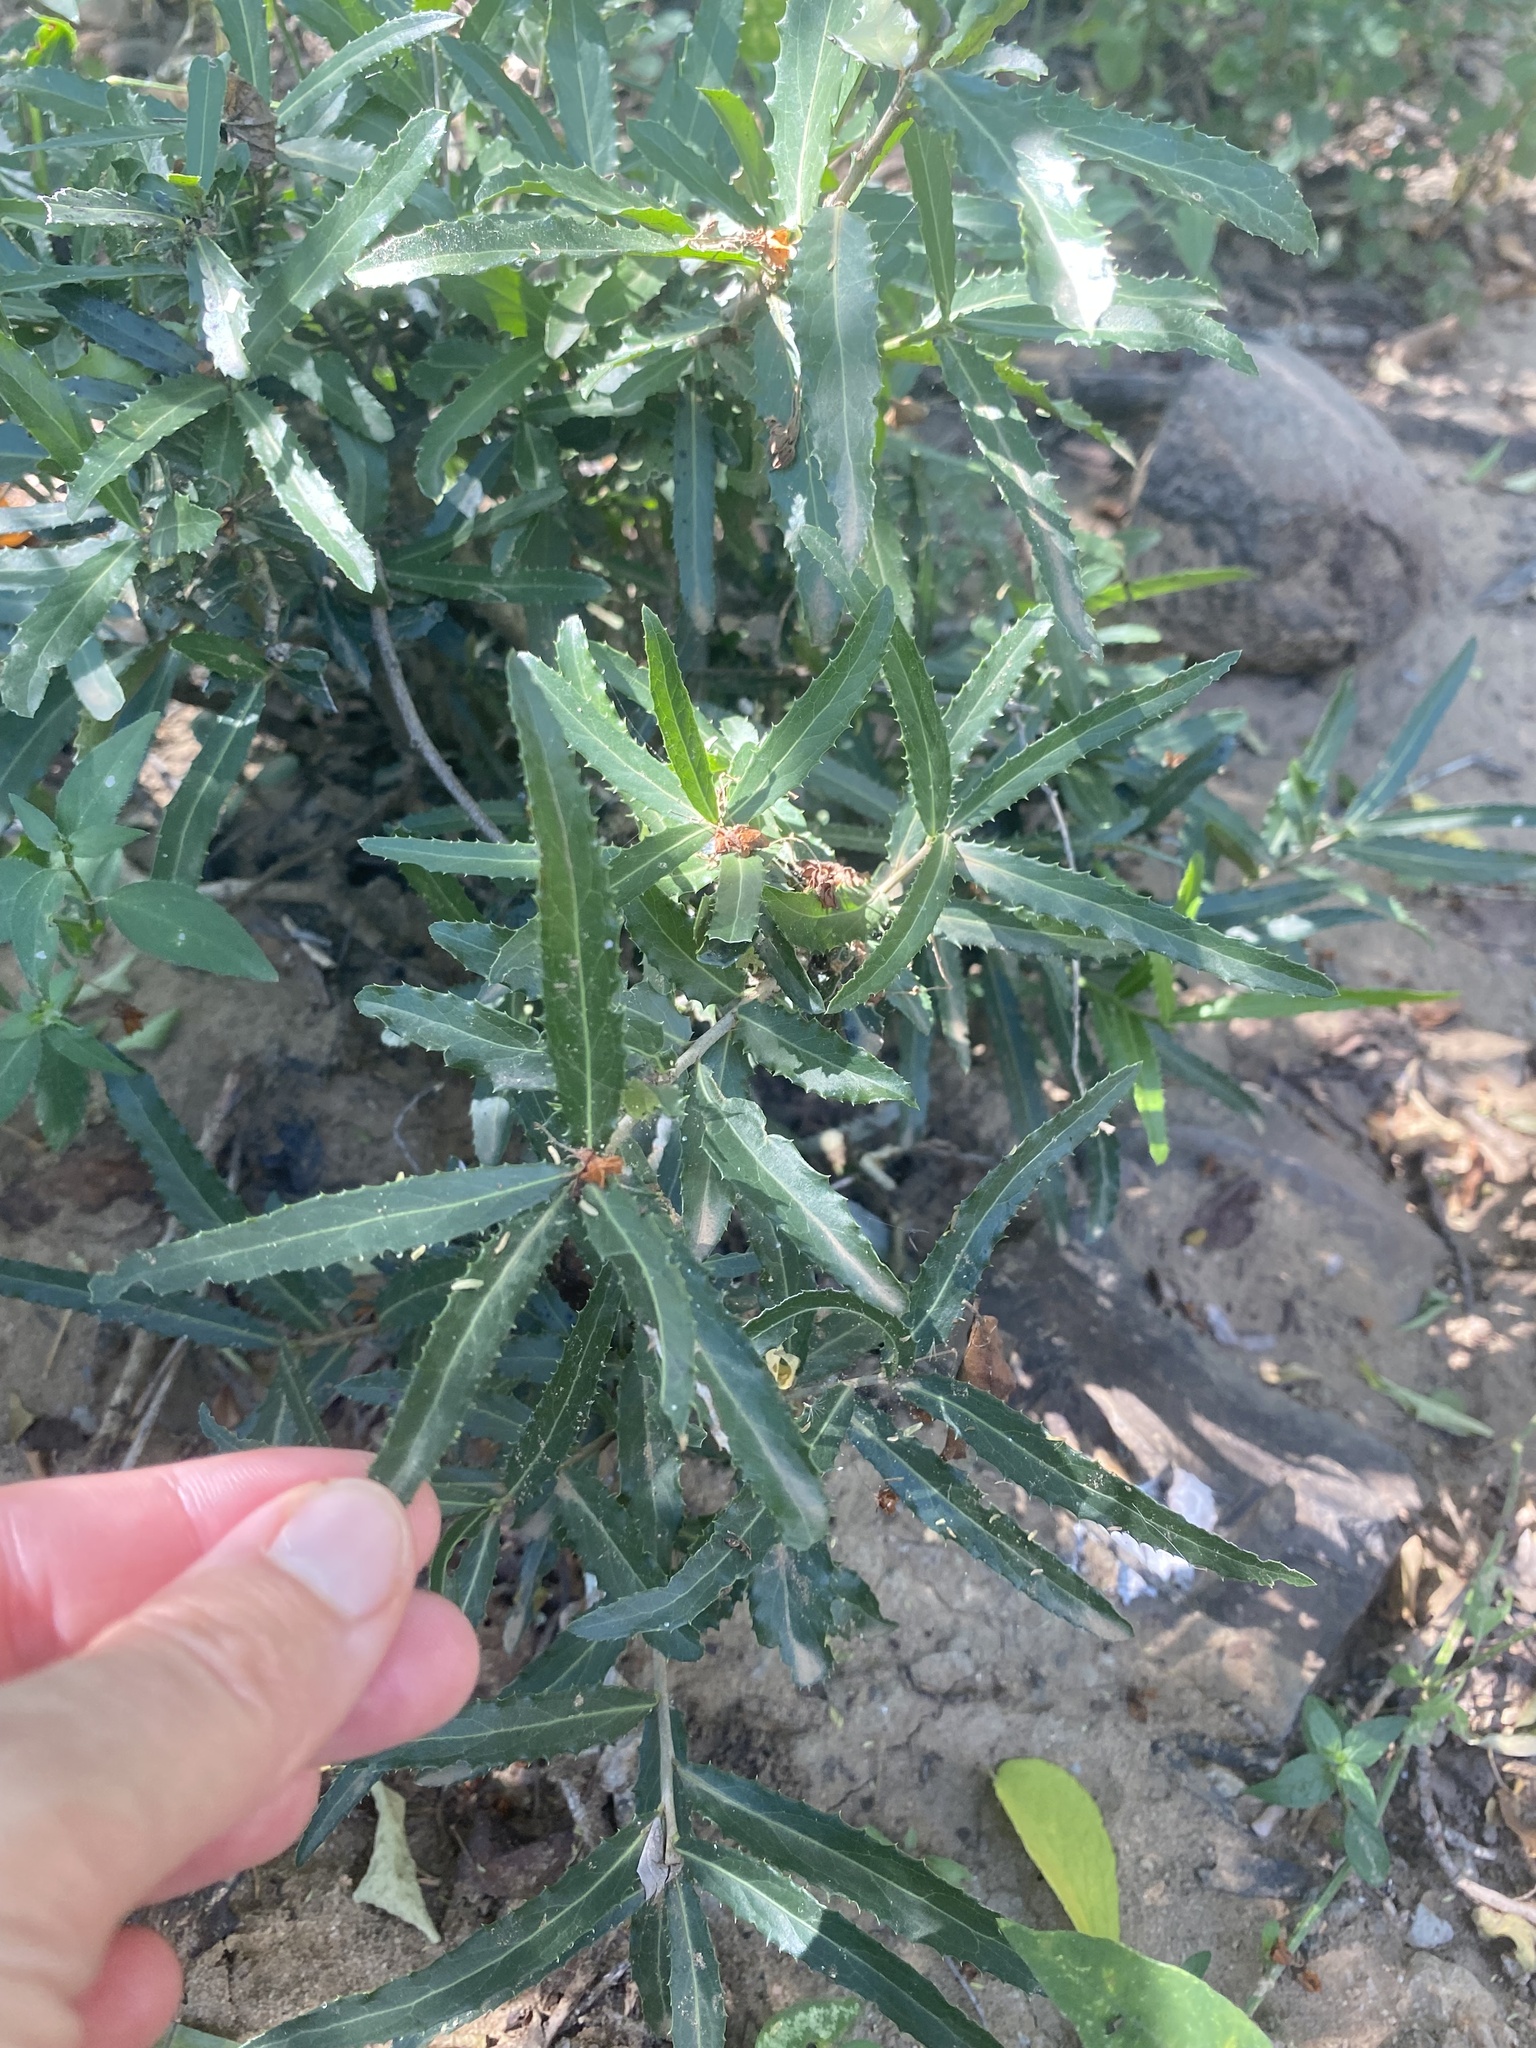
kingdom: Plantae
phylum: Tracheophyta
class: Magnoliopsida
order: Celastrales
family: Celastraceae
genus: Elaeodendron
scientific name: Elaeodendron transvaalense
